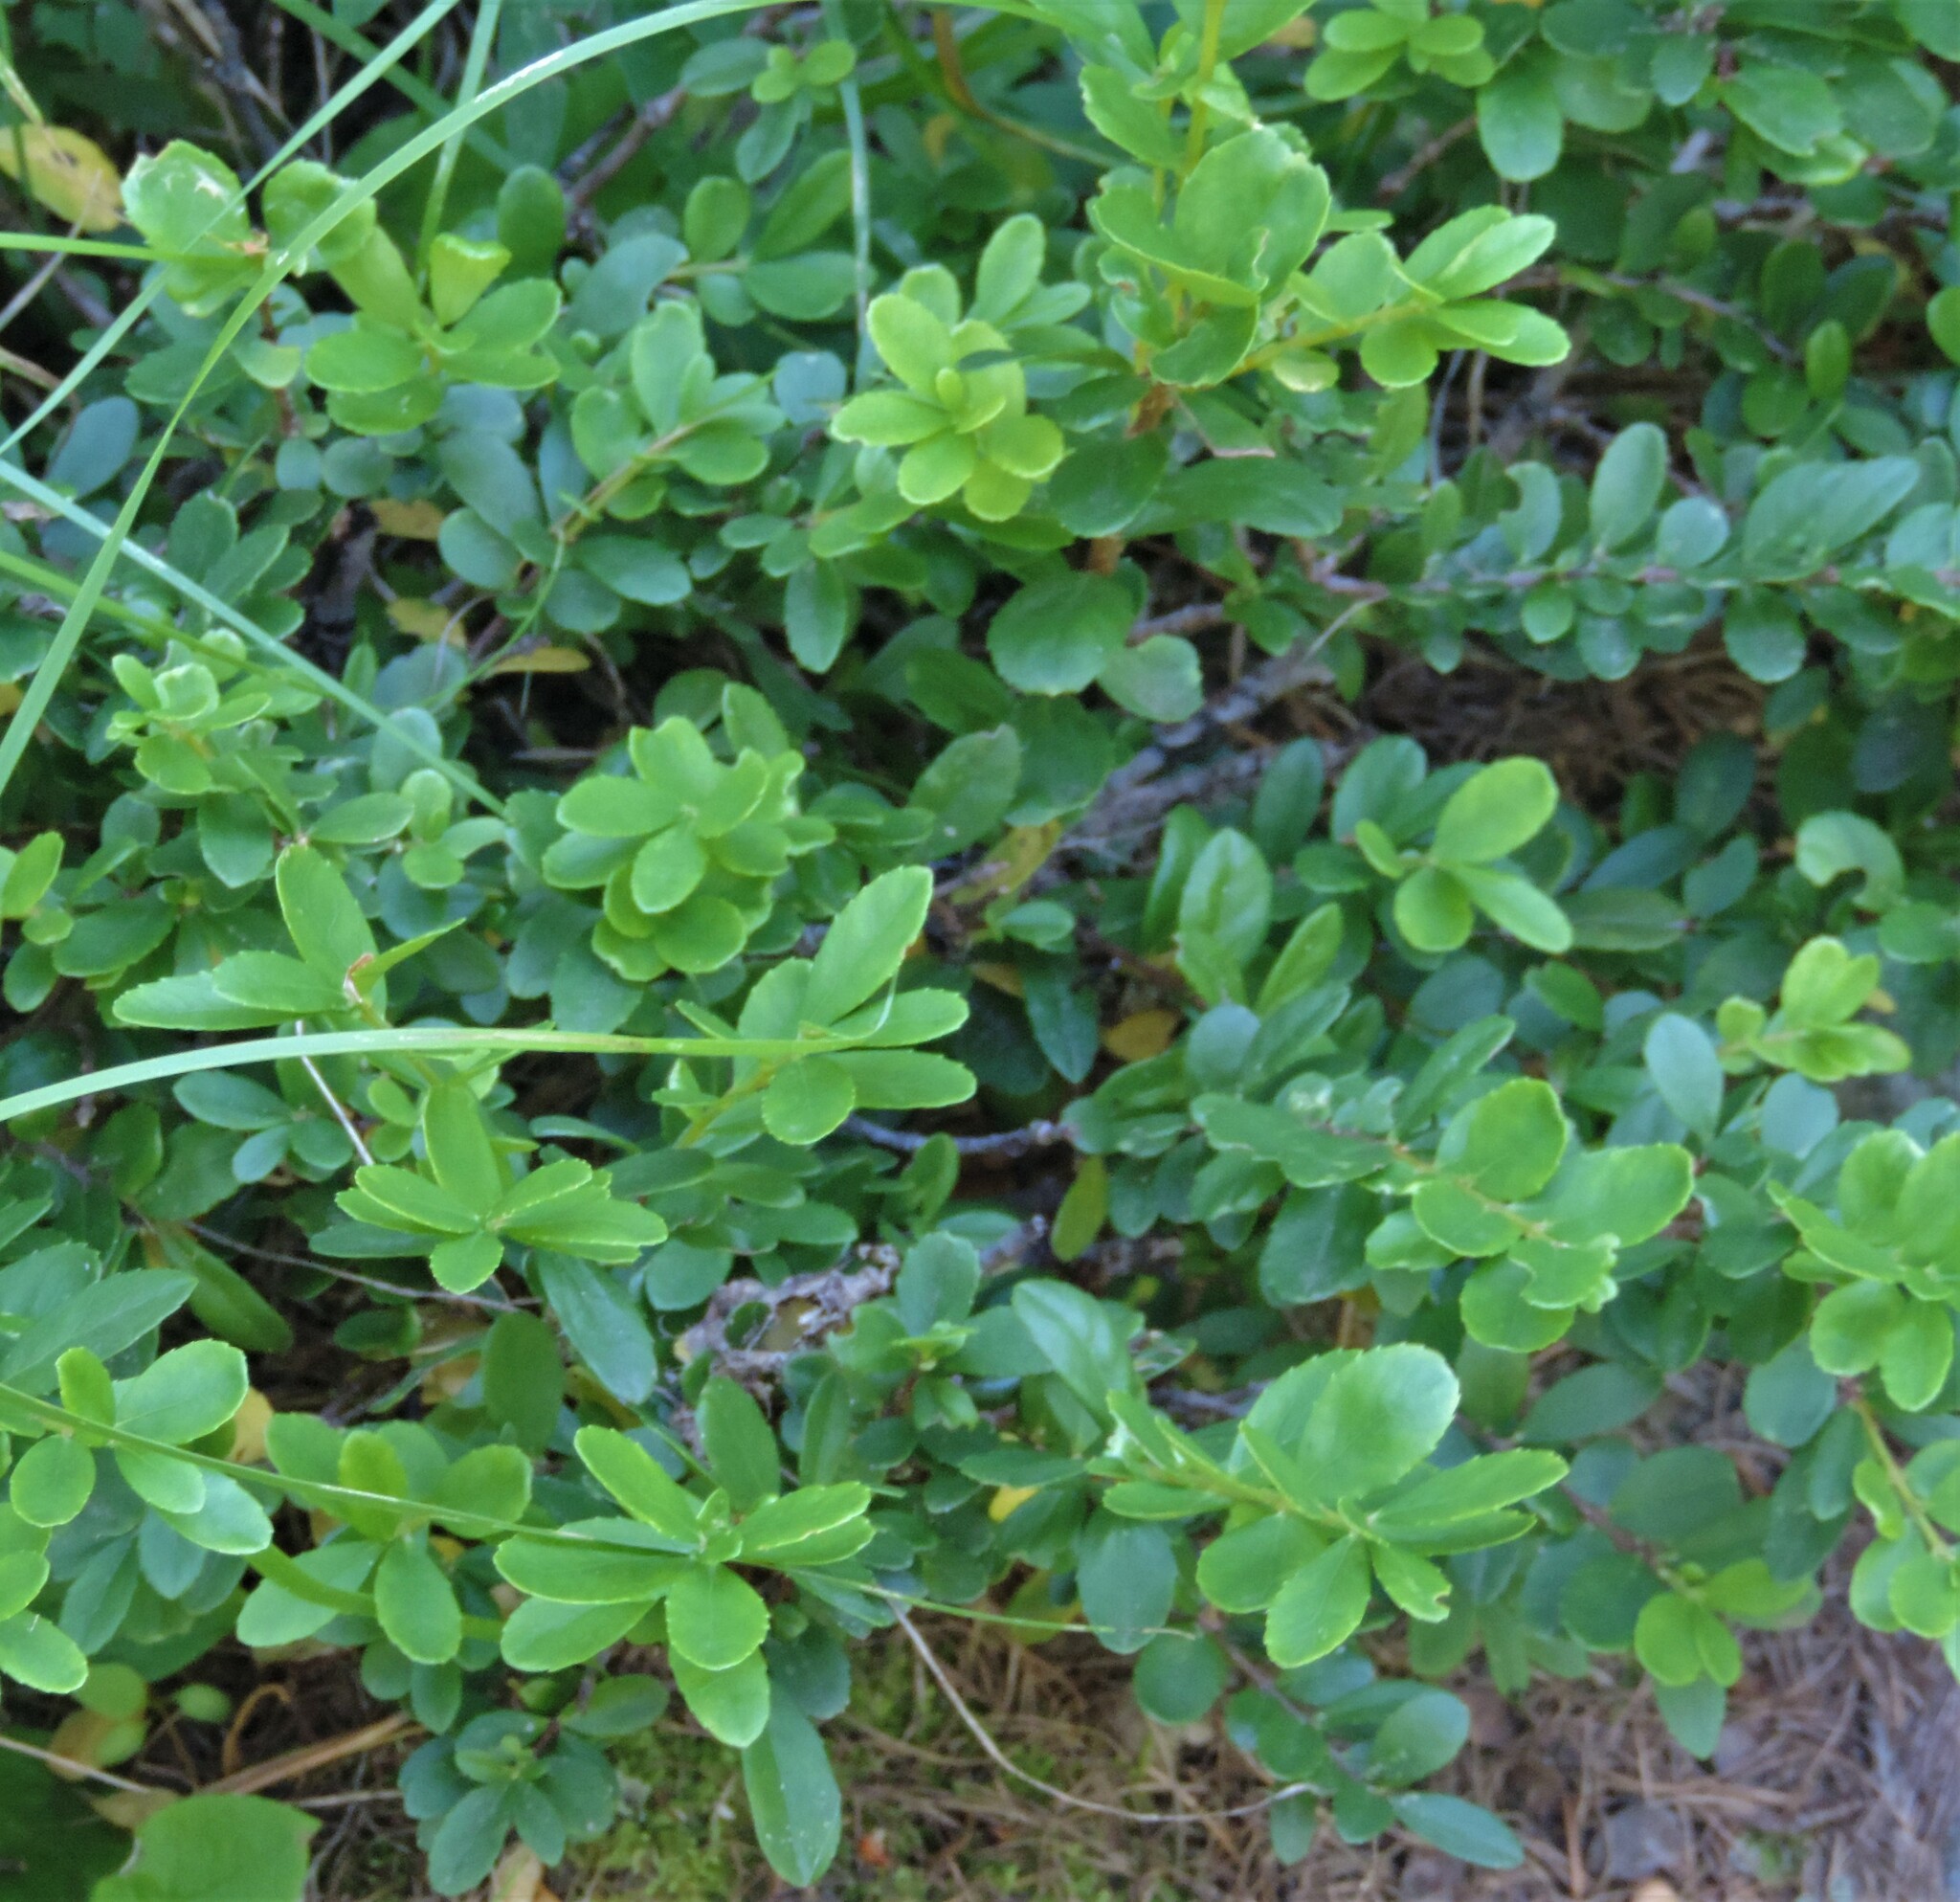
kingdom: Plantae
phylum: Tracheophyta
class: Magnoliopsida
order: Celastrales
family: Celastraceae
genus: Paxistima
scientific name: Paxistima myrsinites
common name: Mountain-lover
